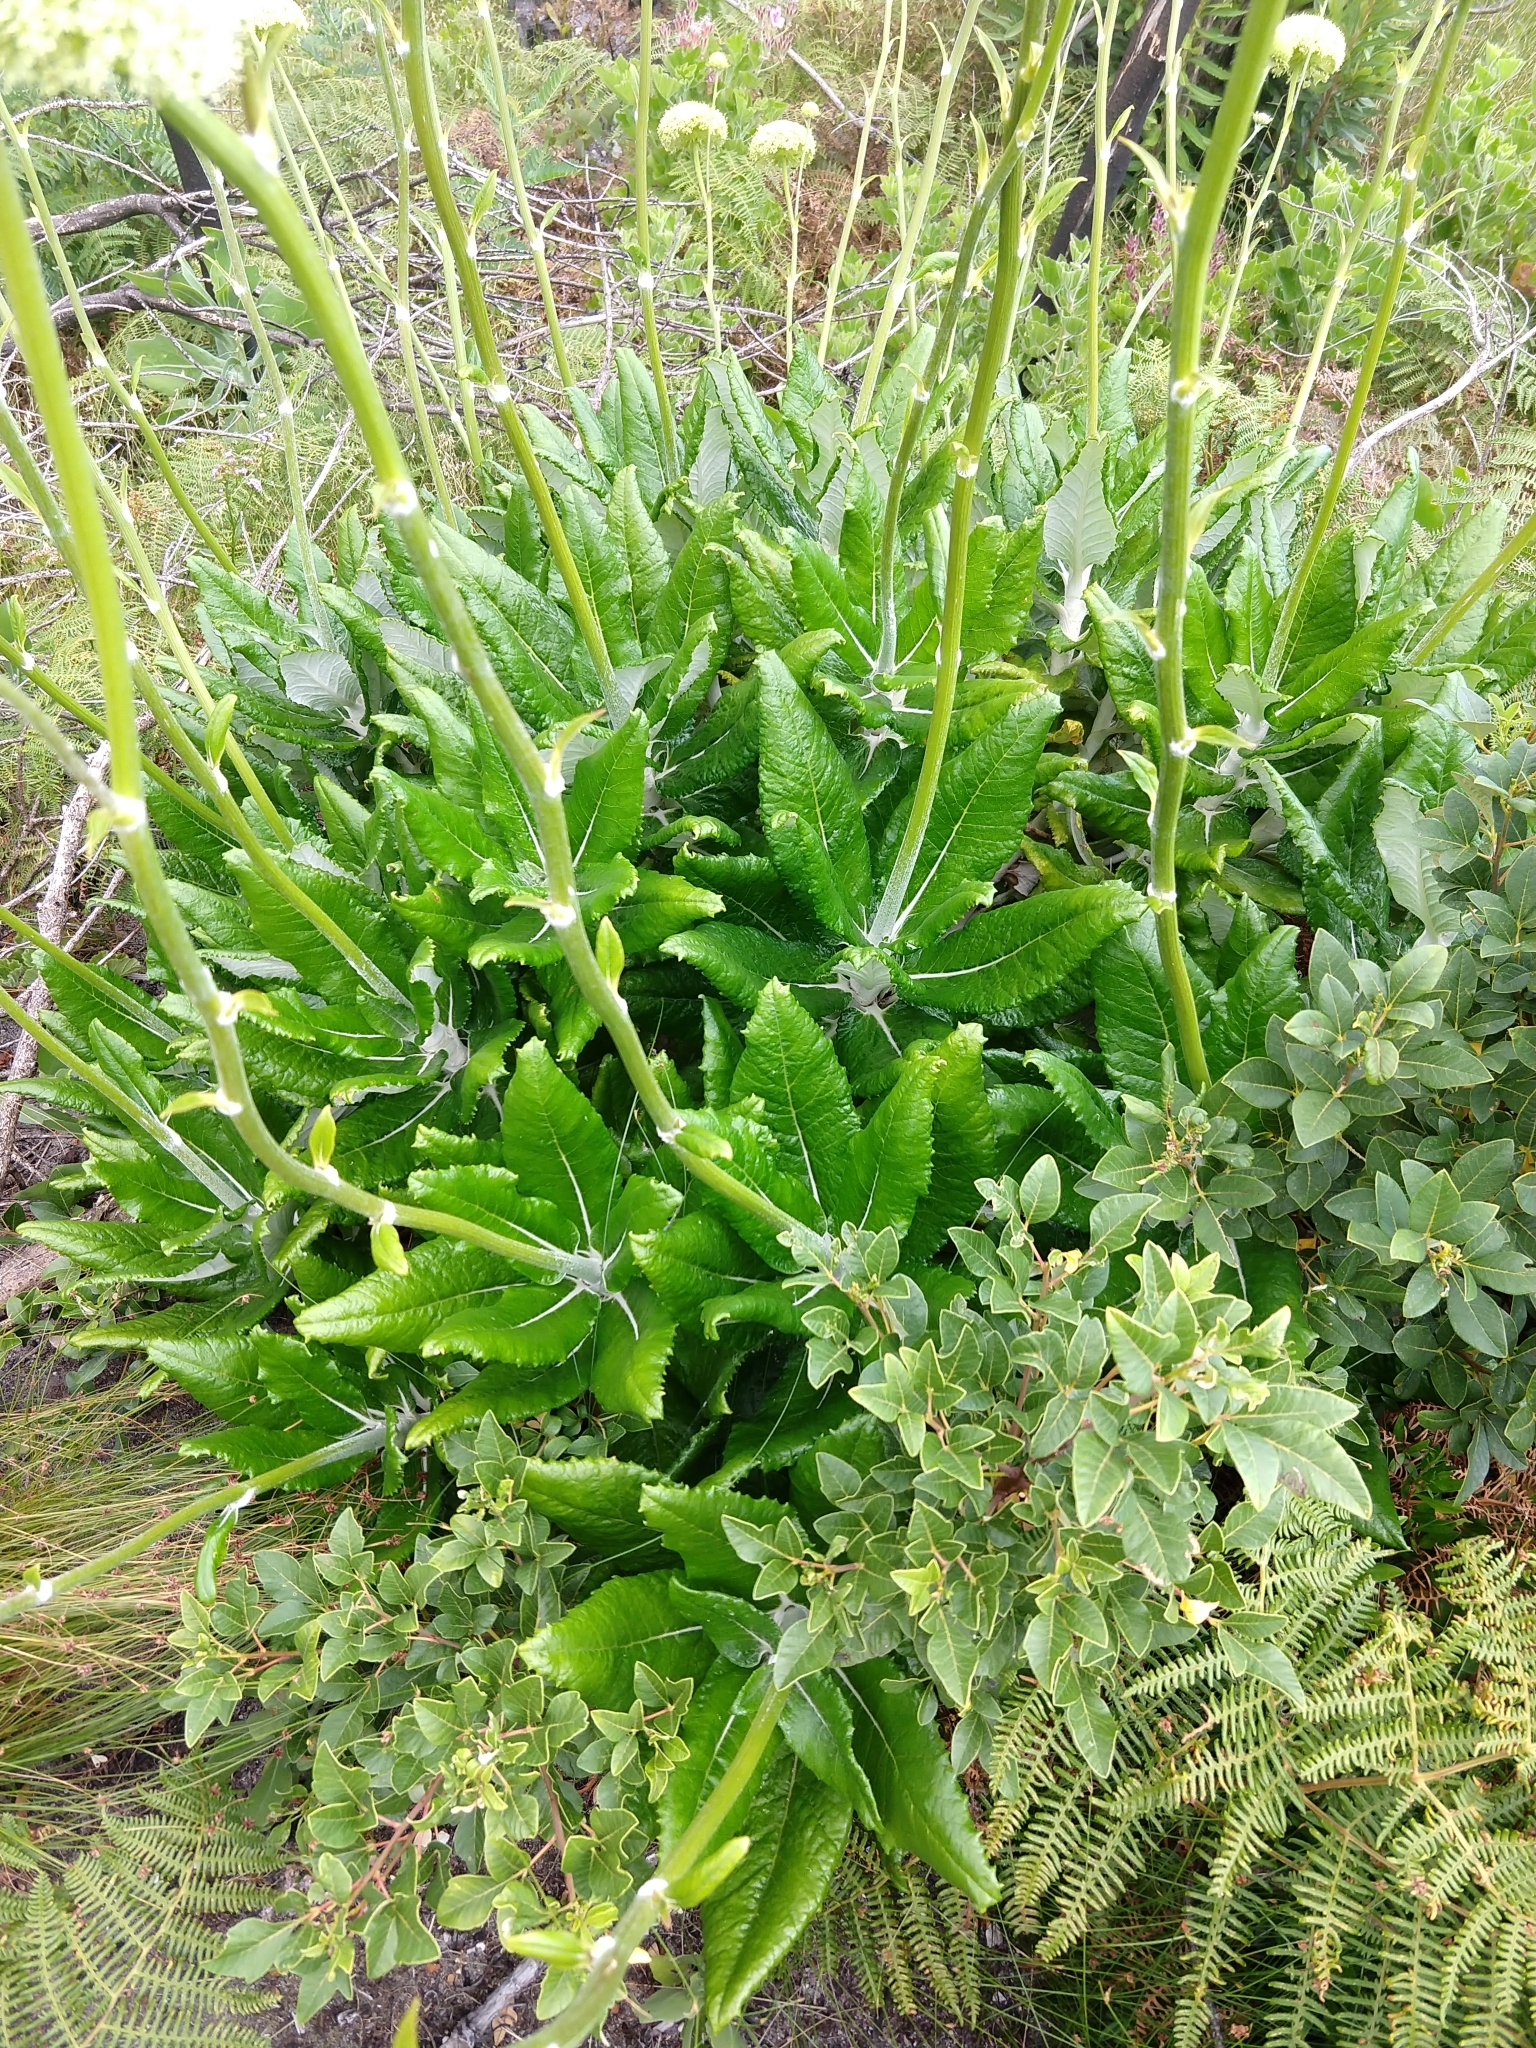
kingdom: Plantae
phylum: Tracheophyta
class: Magnoliopsida
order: Apiales
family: Apiaceae
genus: Hermas
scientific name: Hermas villosa
